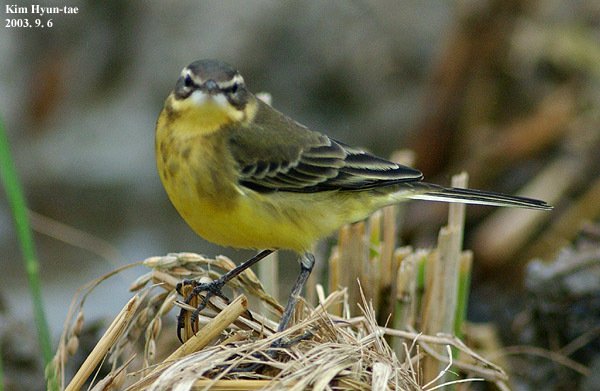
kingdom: Animalia
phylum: Chordata
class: Aves
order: Passeriformes
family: Motacillidae
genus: Motacilla
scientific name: Motacilla tschutschensis
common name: Eastern yellow wagtail
